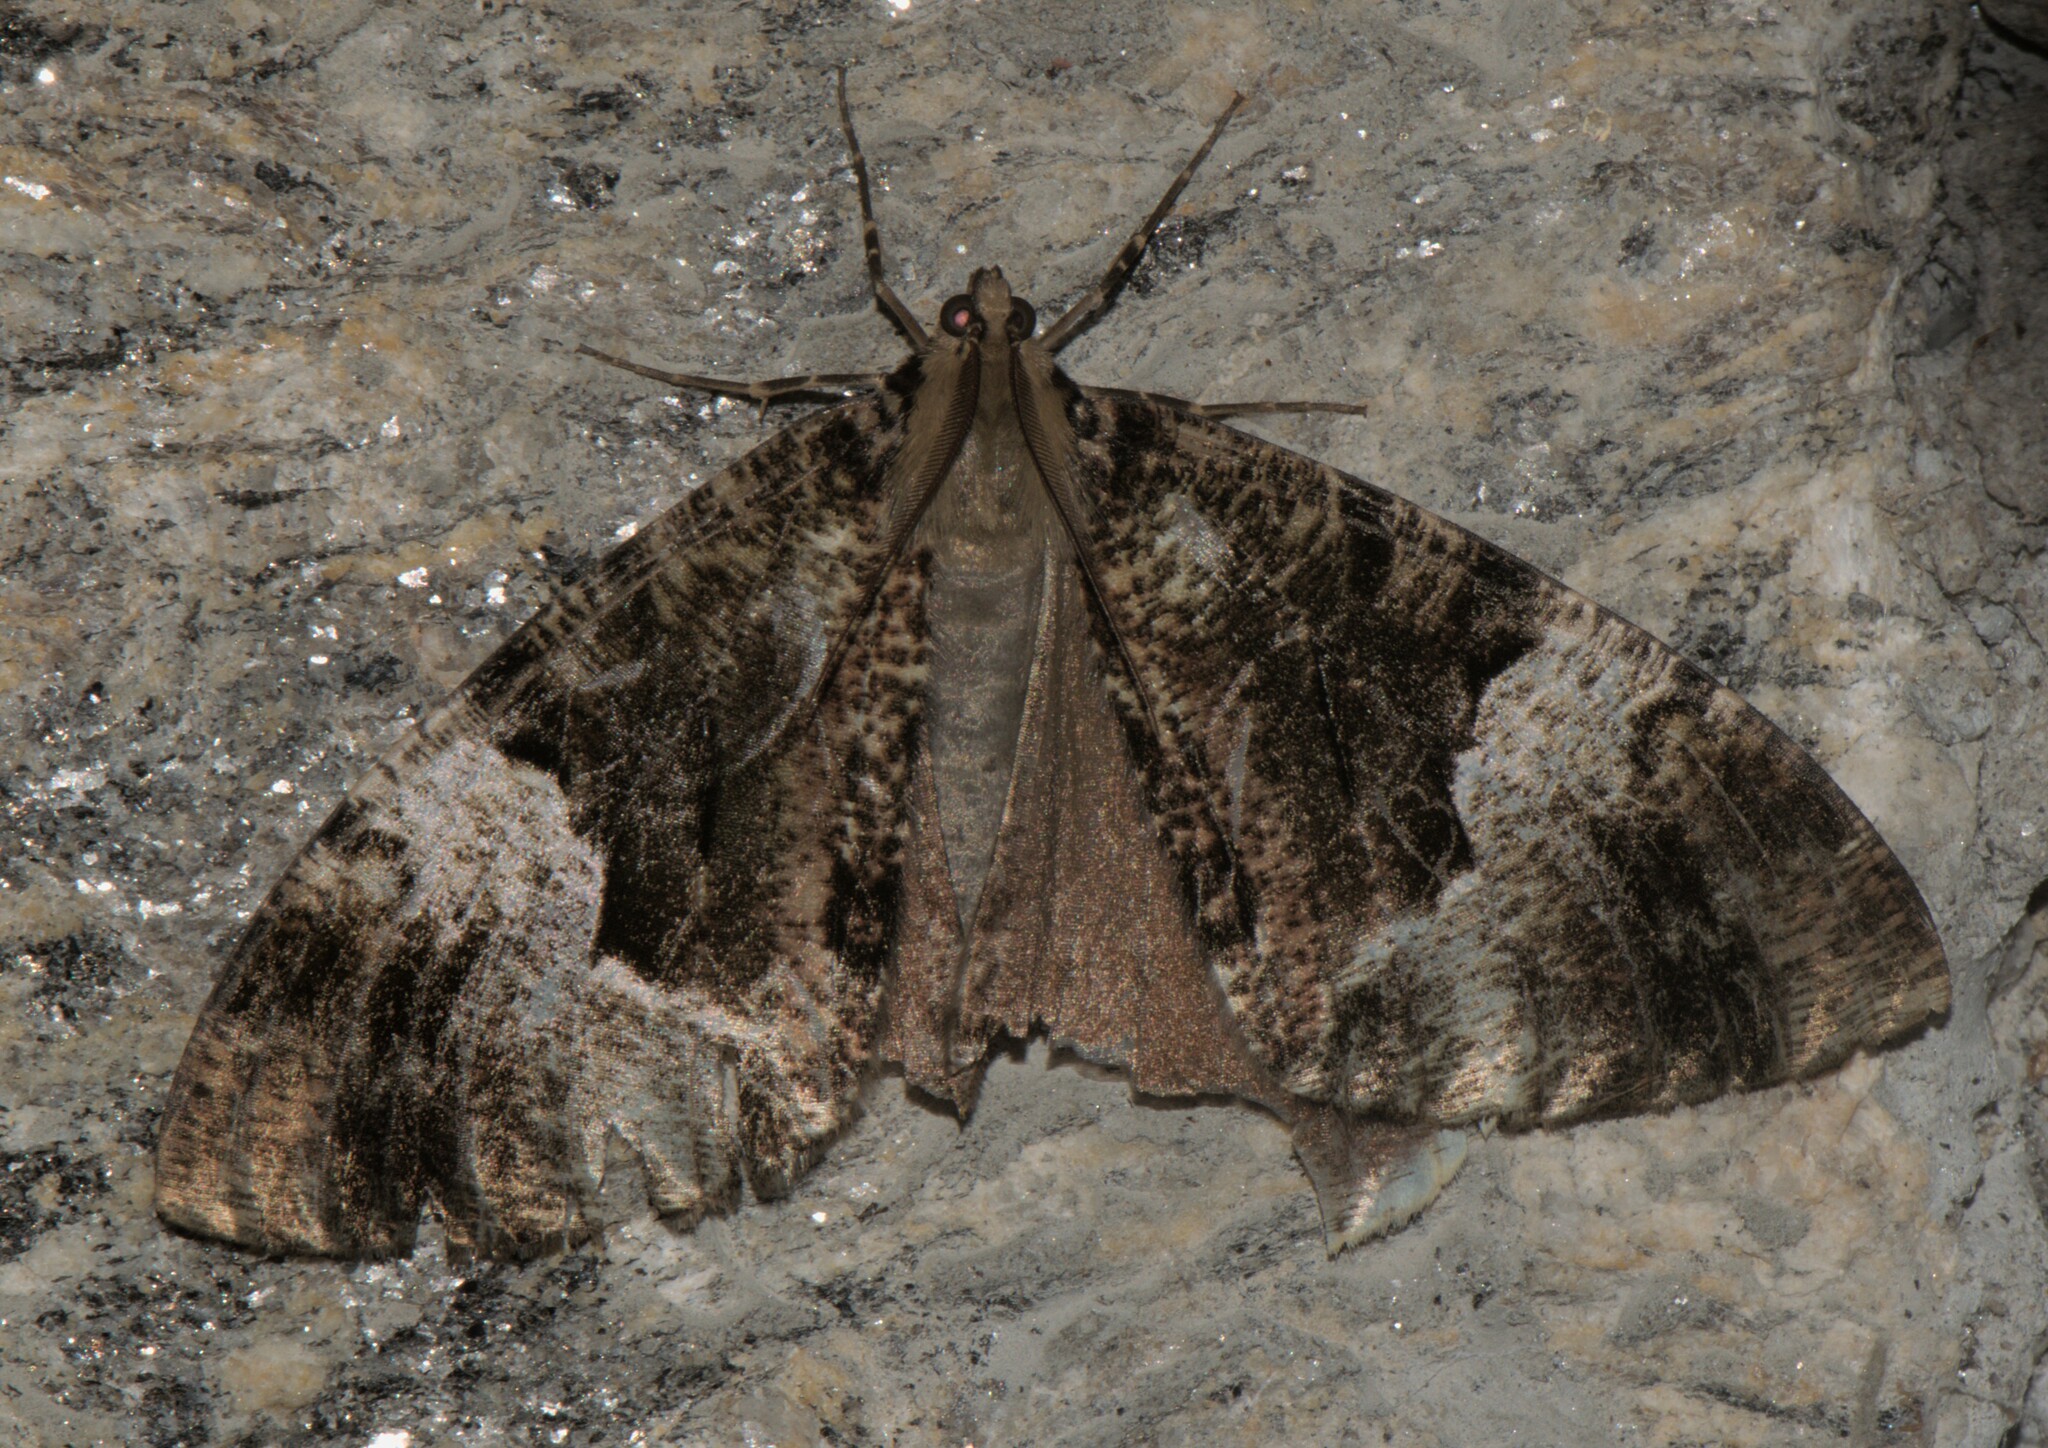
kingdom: Animalia
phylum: Arthropoda
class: Insecta
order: Lepidoptera
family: Geometridae
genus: Xandrames
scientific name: Xandrames latiferaria
